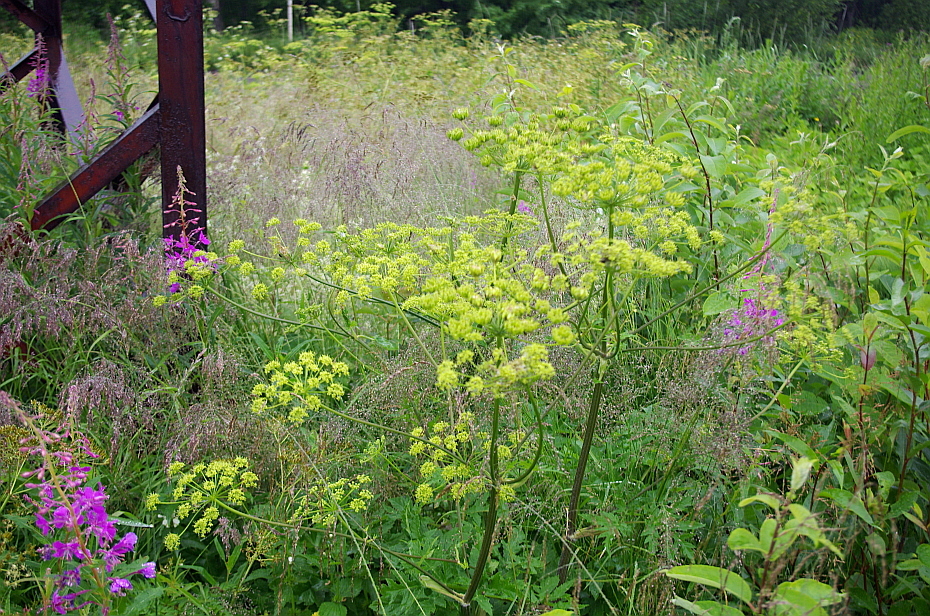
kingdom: Plantae
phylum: Tracheophyta
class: Magnoliopsida
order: Apiales
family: Apiaceae
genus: Heracleum
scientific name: Heracleum sphondylium
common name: Hogweed
